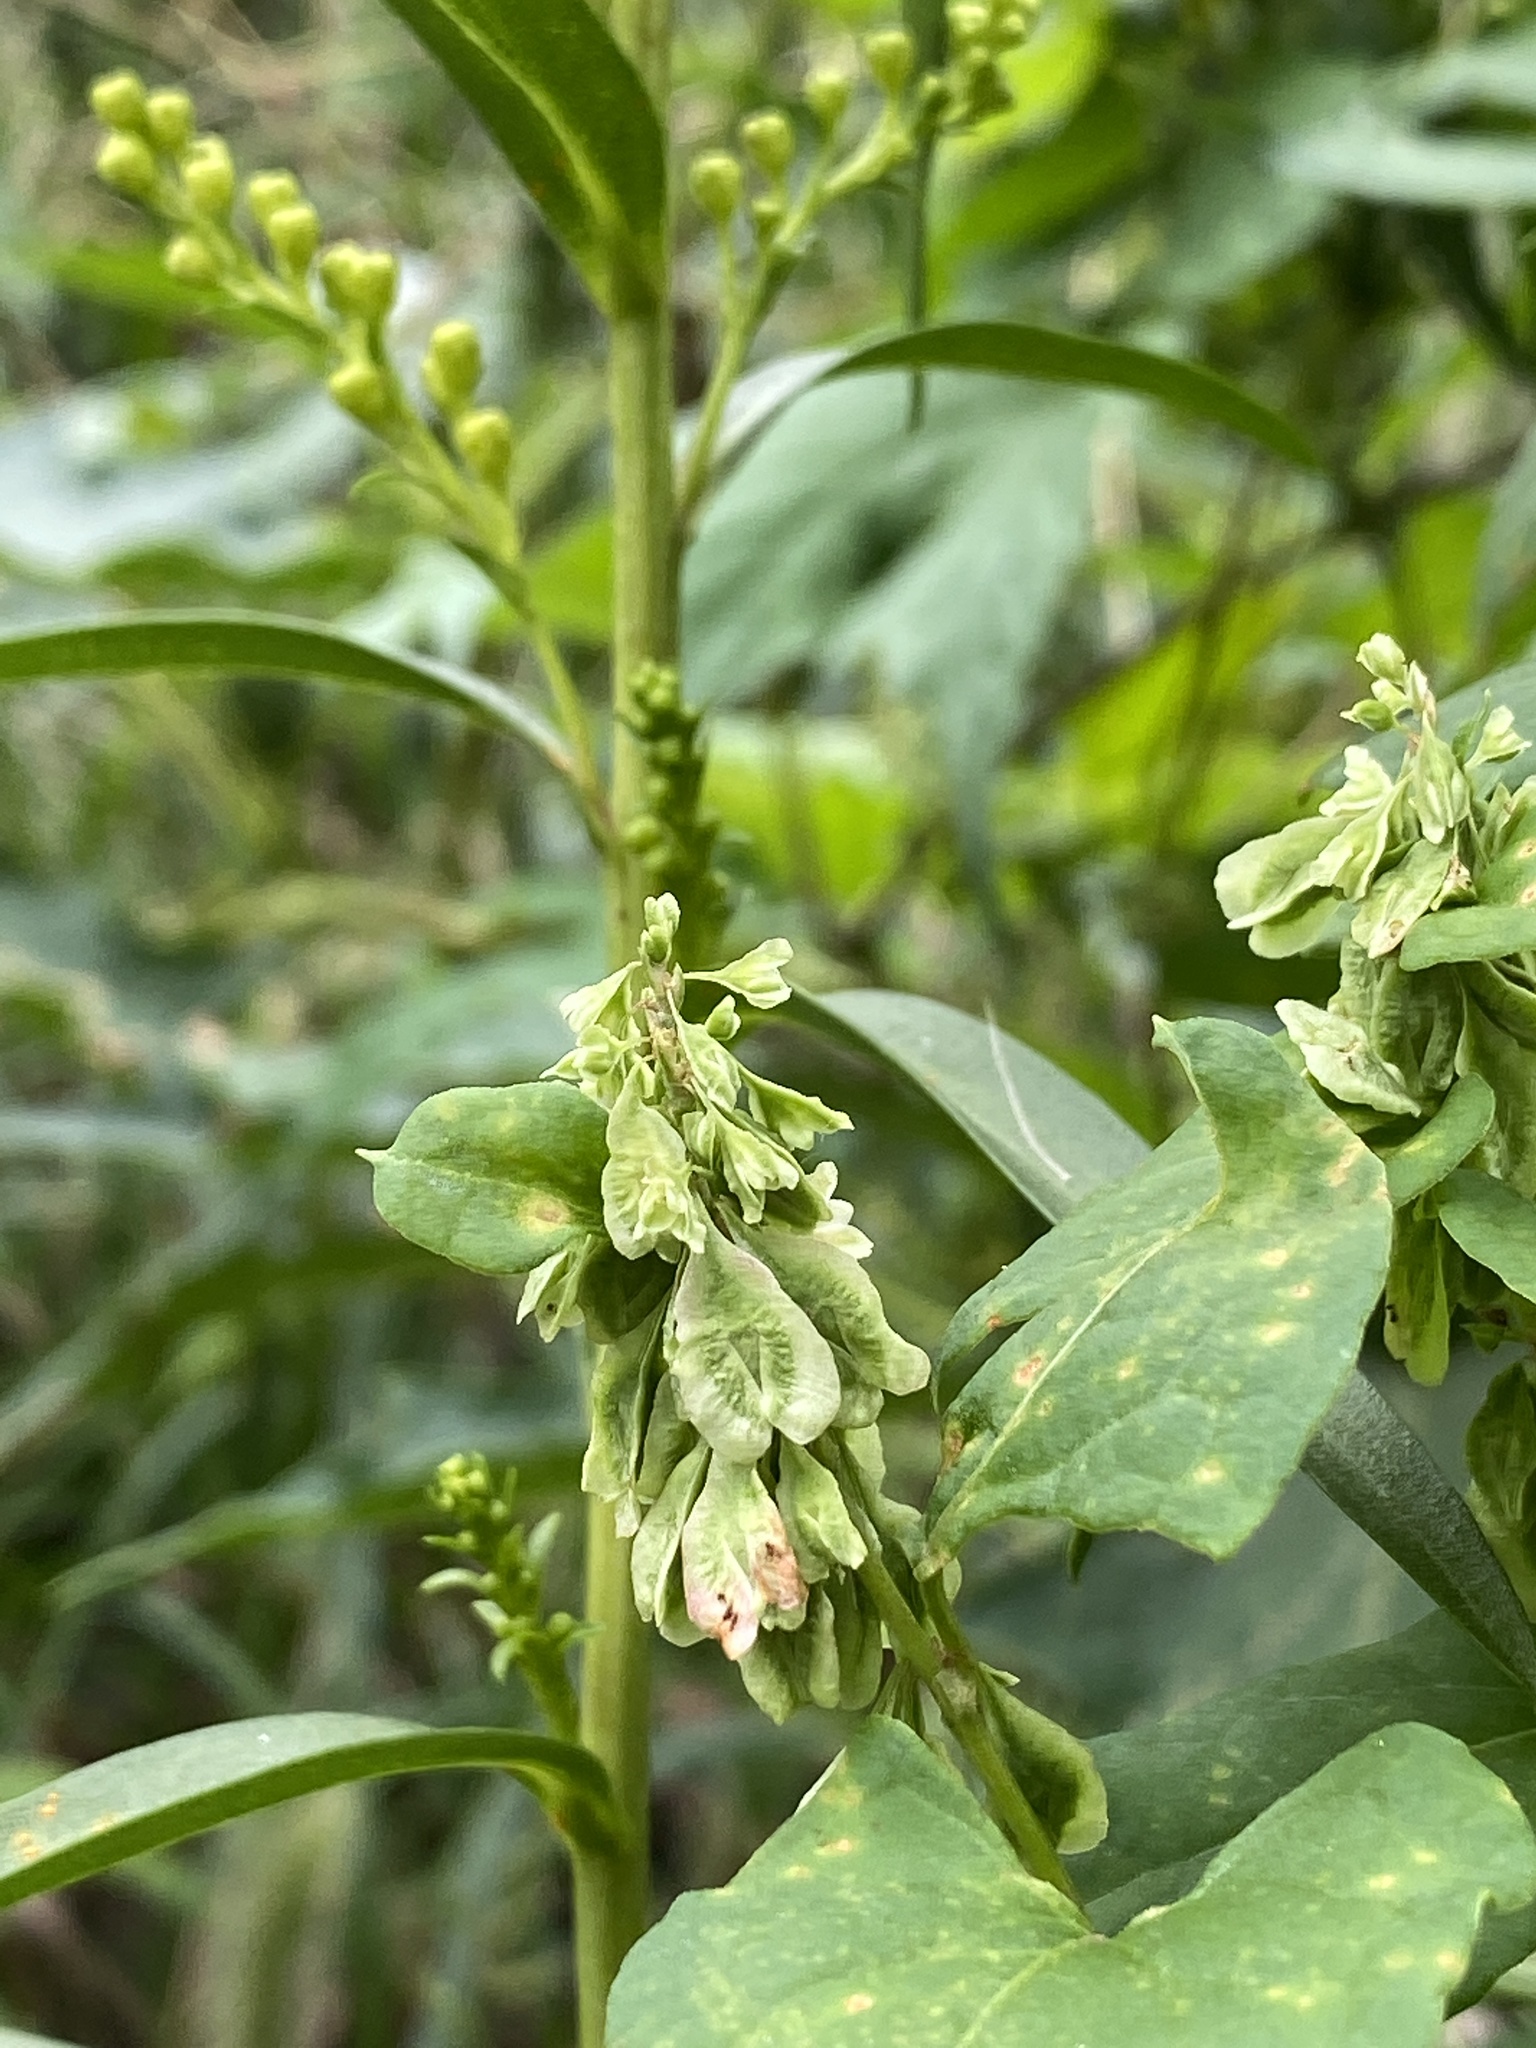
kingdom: Plantae
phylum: Tracheophyta
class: Magnoliopsida
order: Caryophyllales
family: Polygonaceae
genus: Fallopia
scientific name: Fallopia scandens
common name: Climbing false buckwheat
